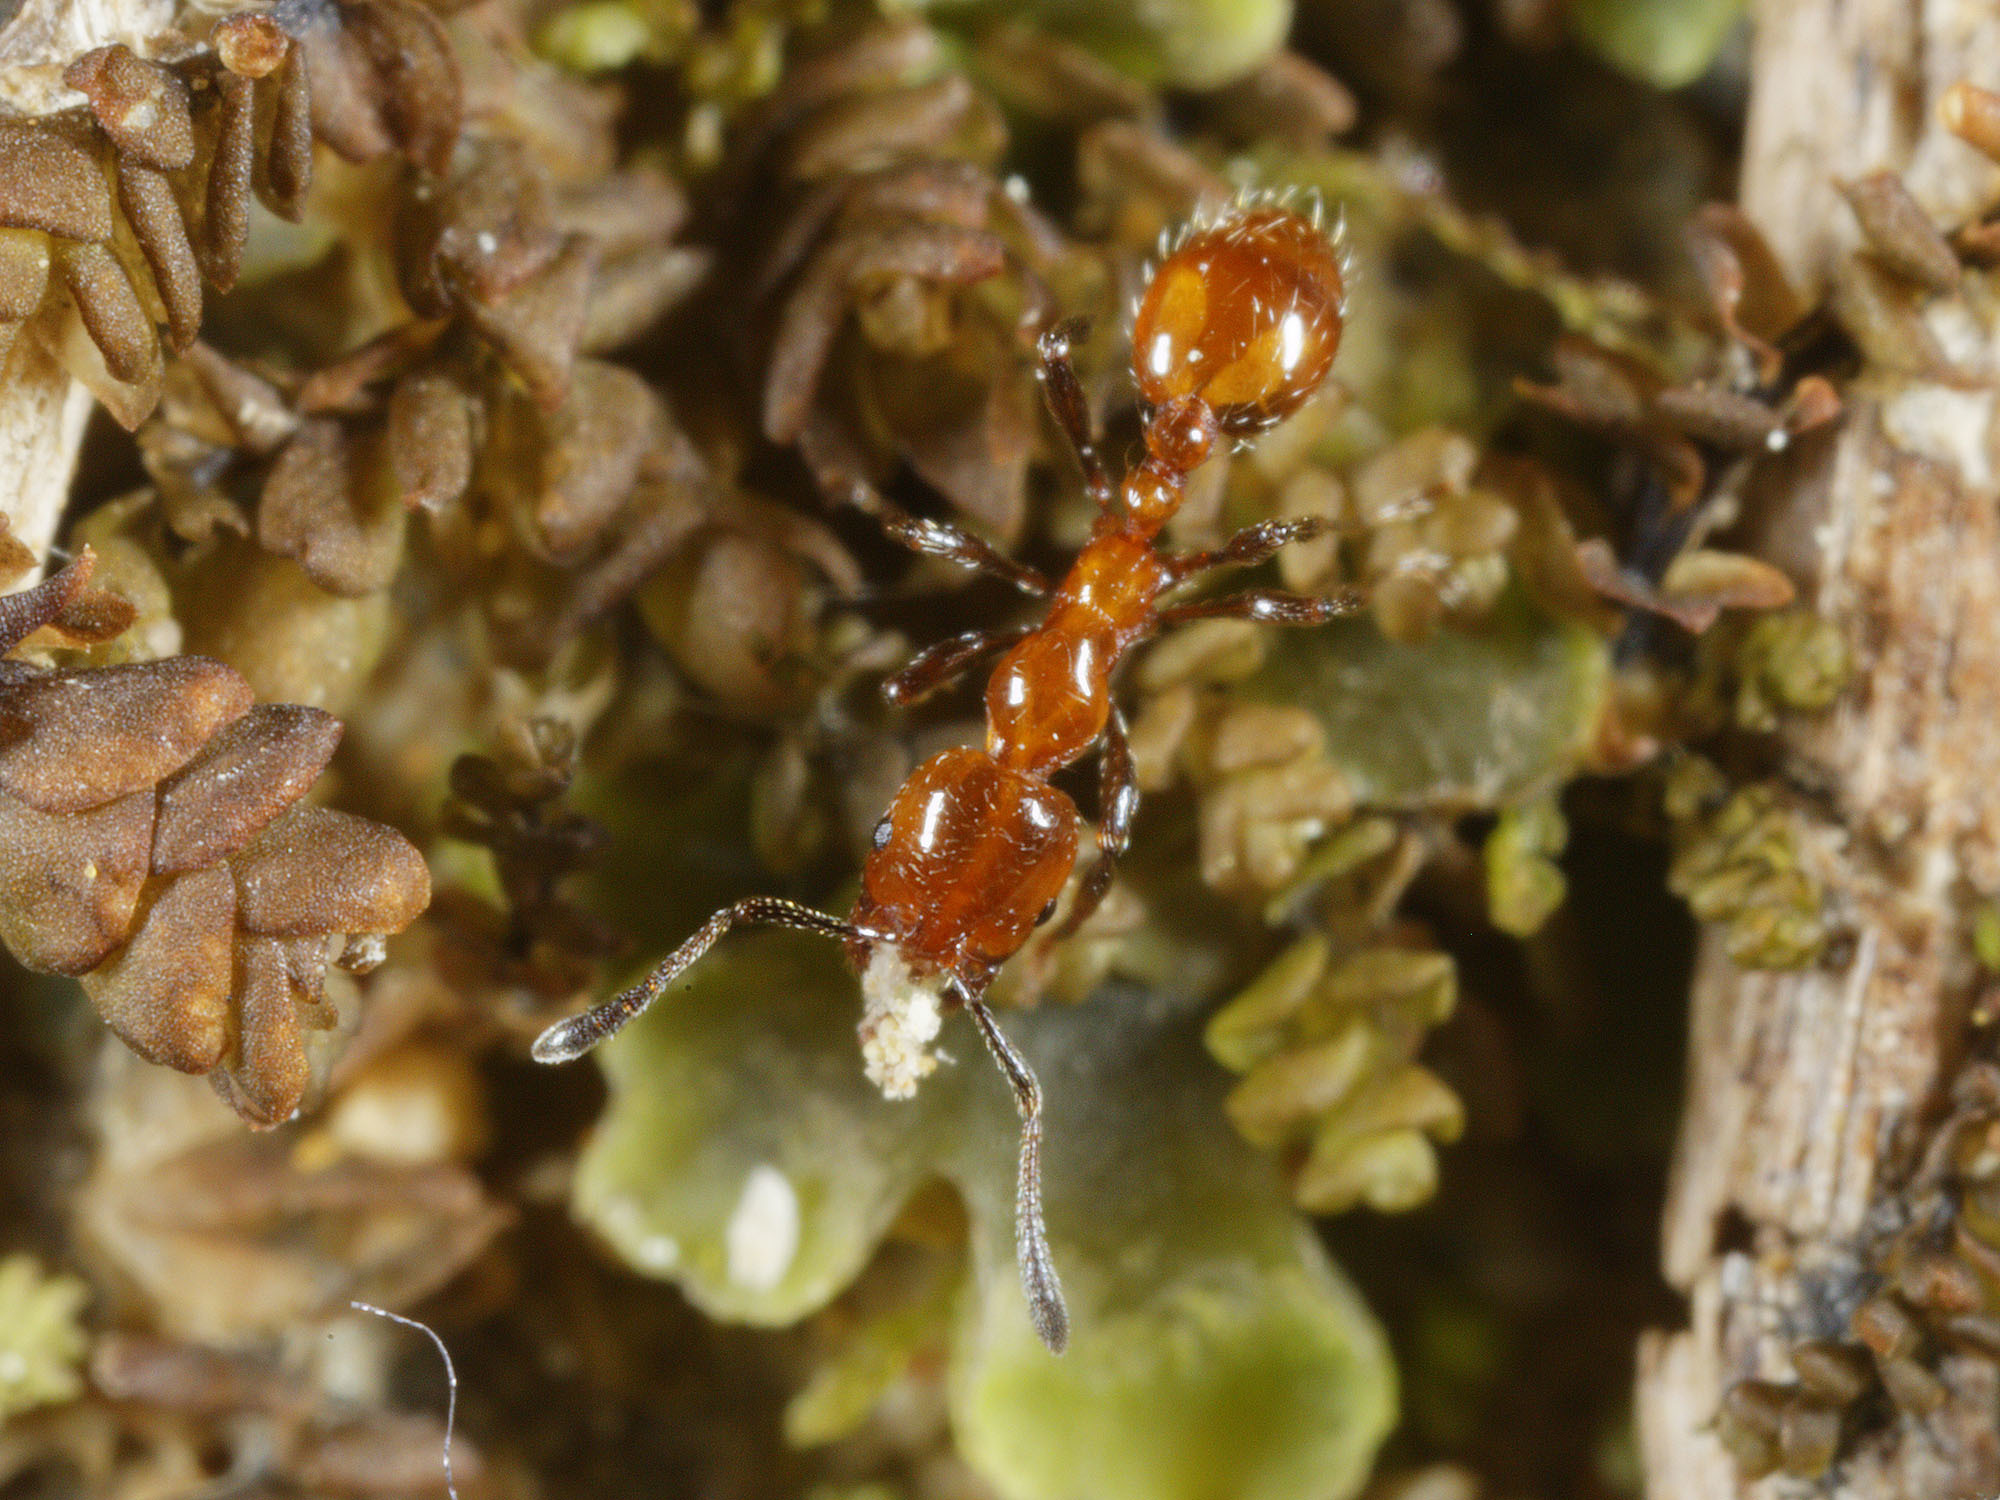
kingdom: Animalia
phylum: Arthropoda
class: Insecta
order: Hymenoptera
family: Formicidae
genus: Monomorium
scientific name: Monomorium antarcticum
